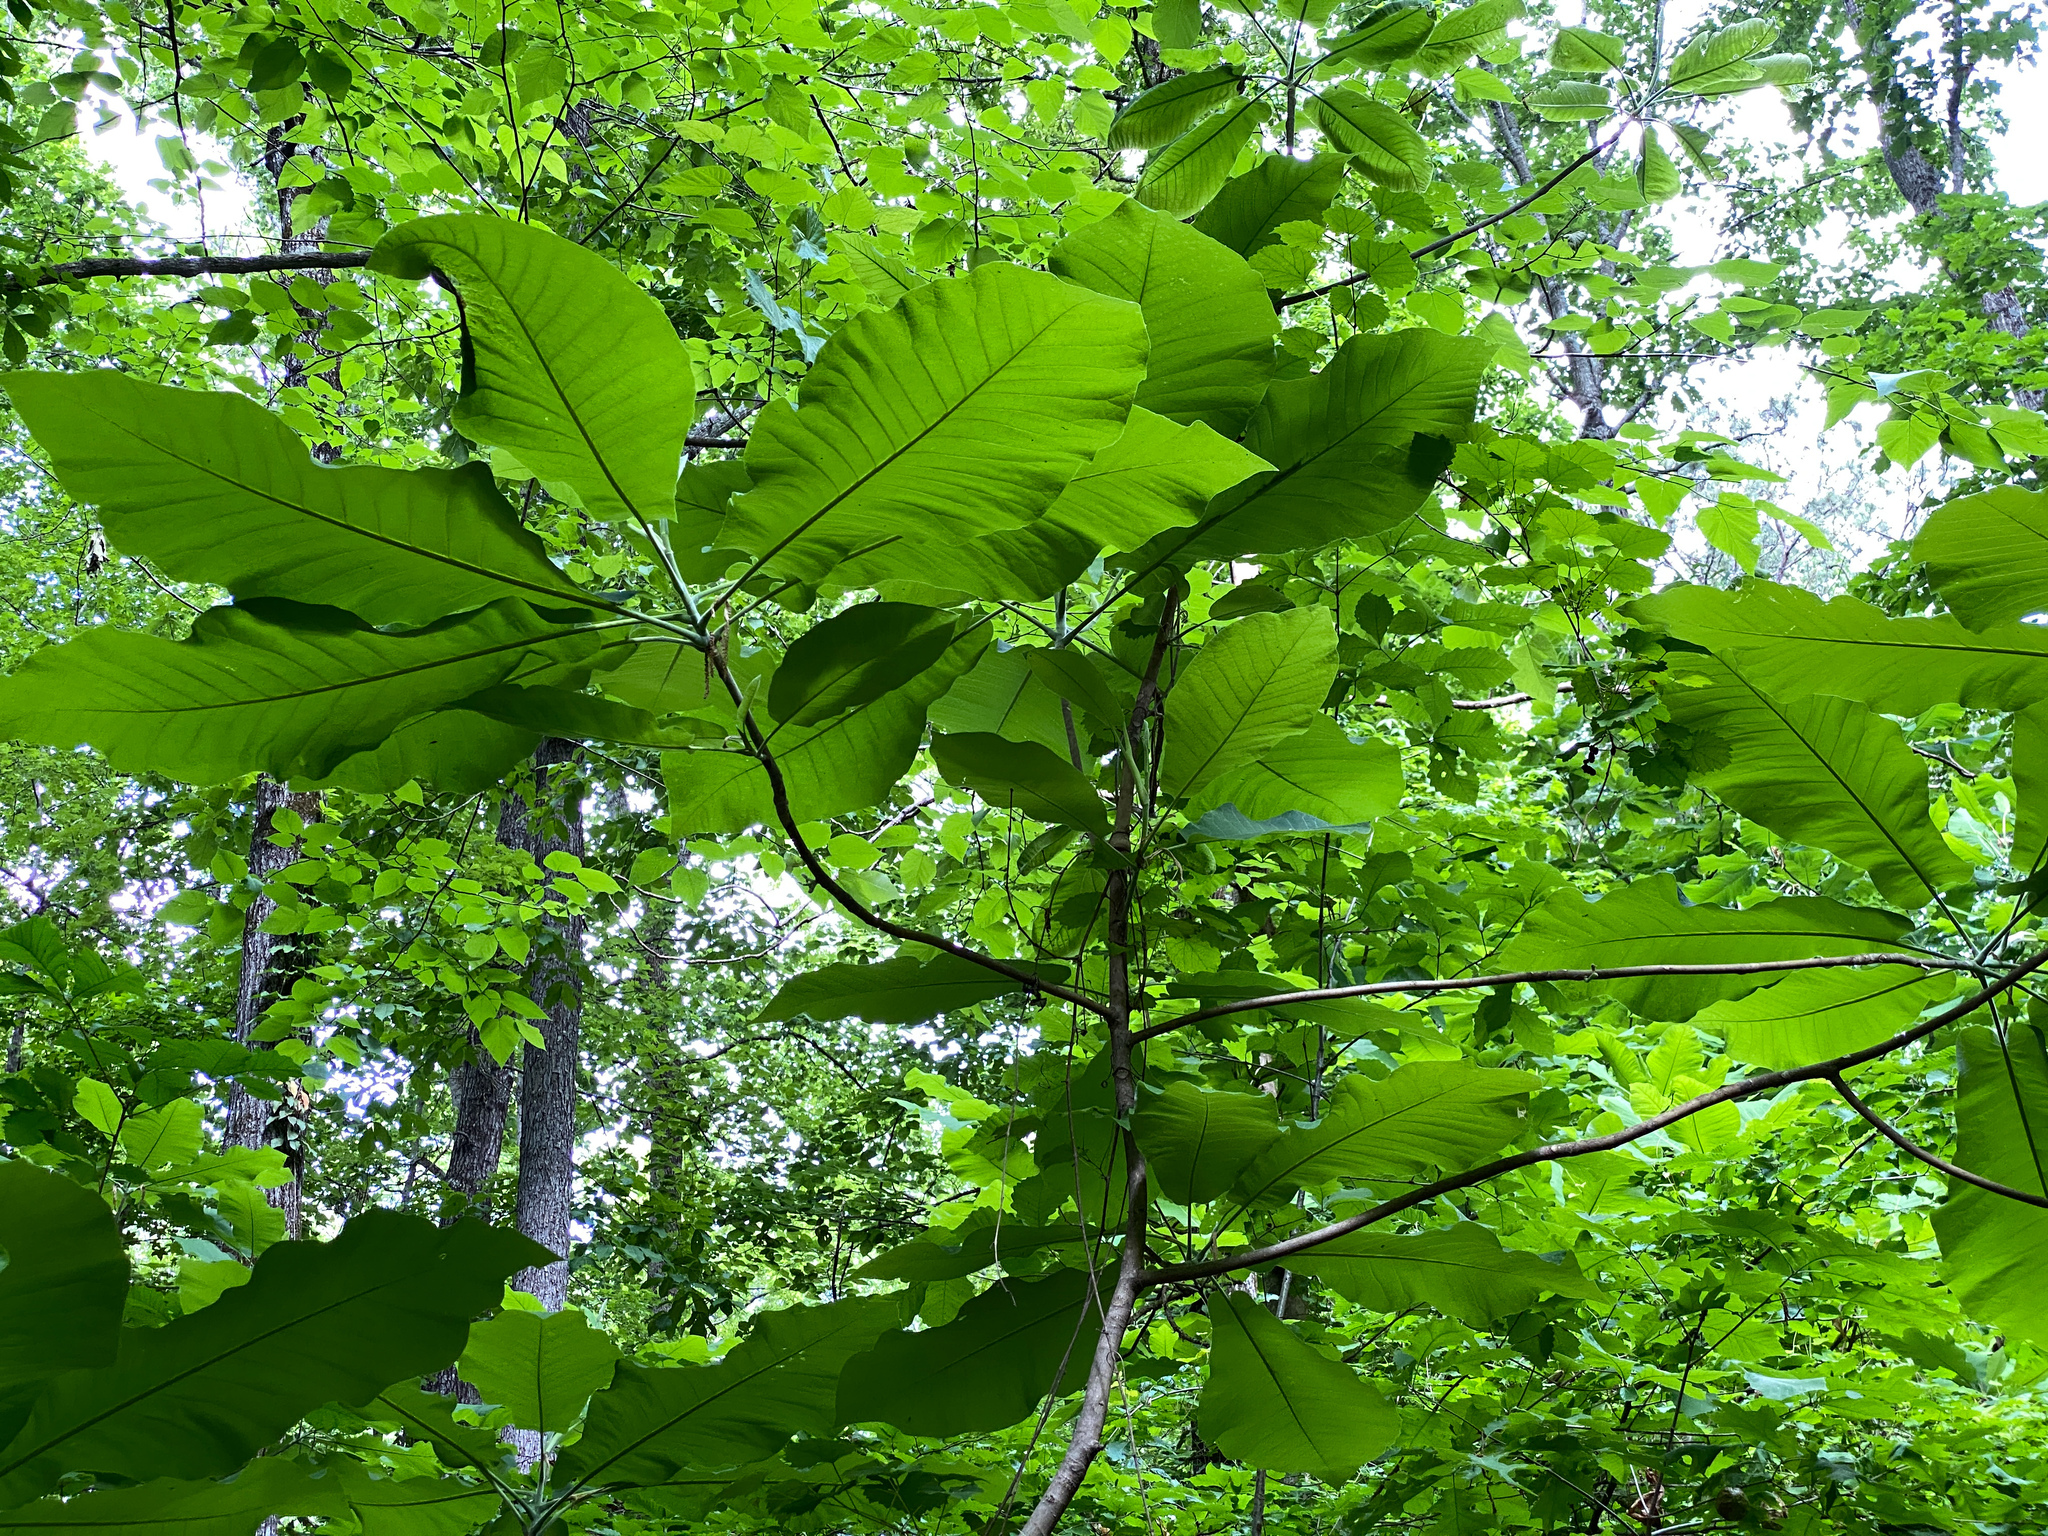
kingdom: Plantae
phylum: Tracheophyta
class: Magnoliopsida
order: Magnoliales
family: Magnoliaceae
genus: Magnolia
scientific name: Magnolia macrophylla
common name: Big-leaf magnolia
